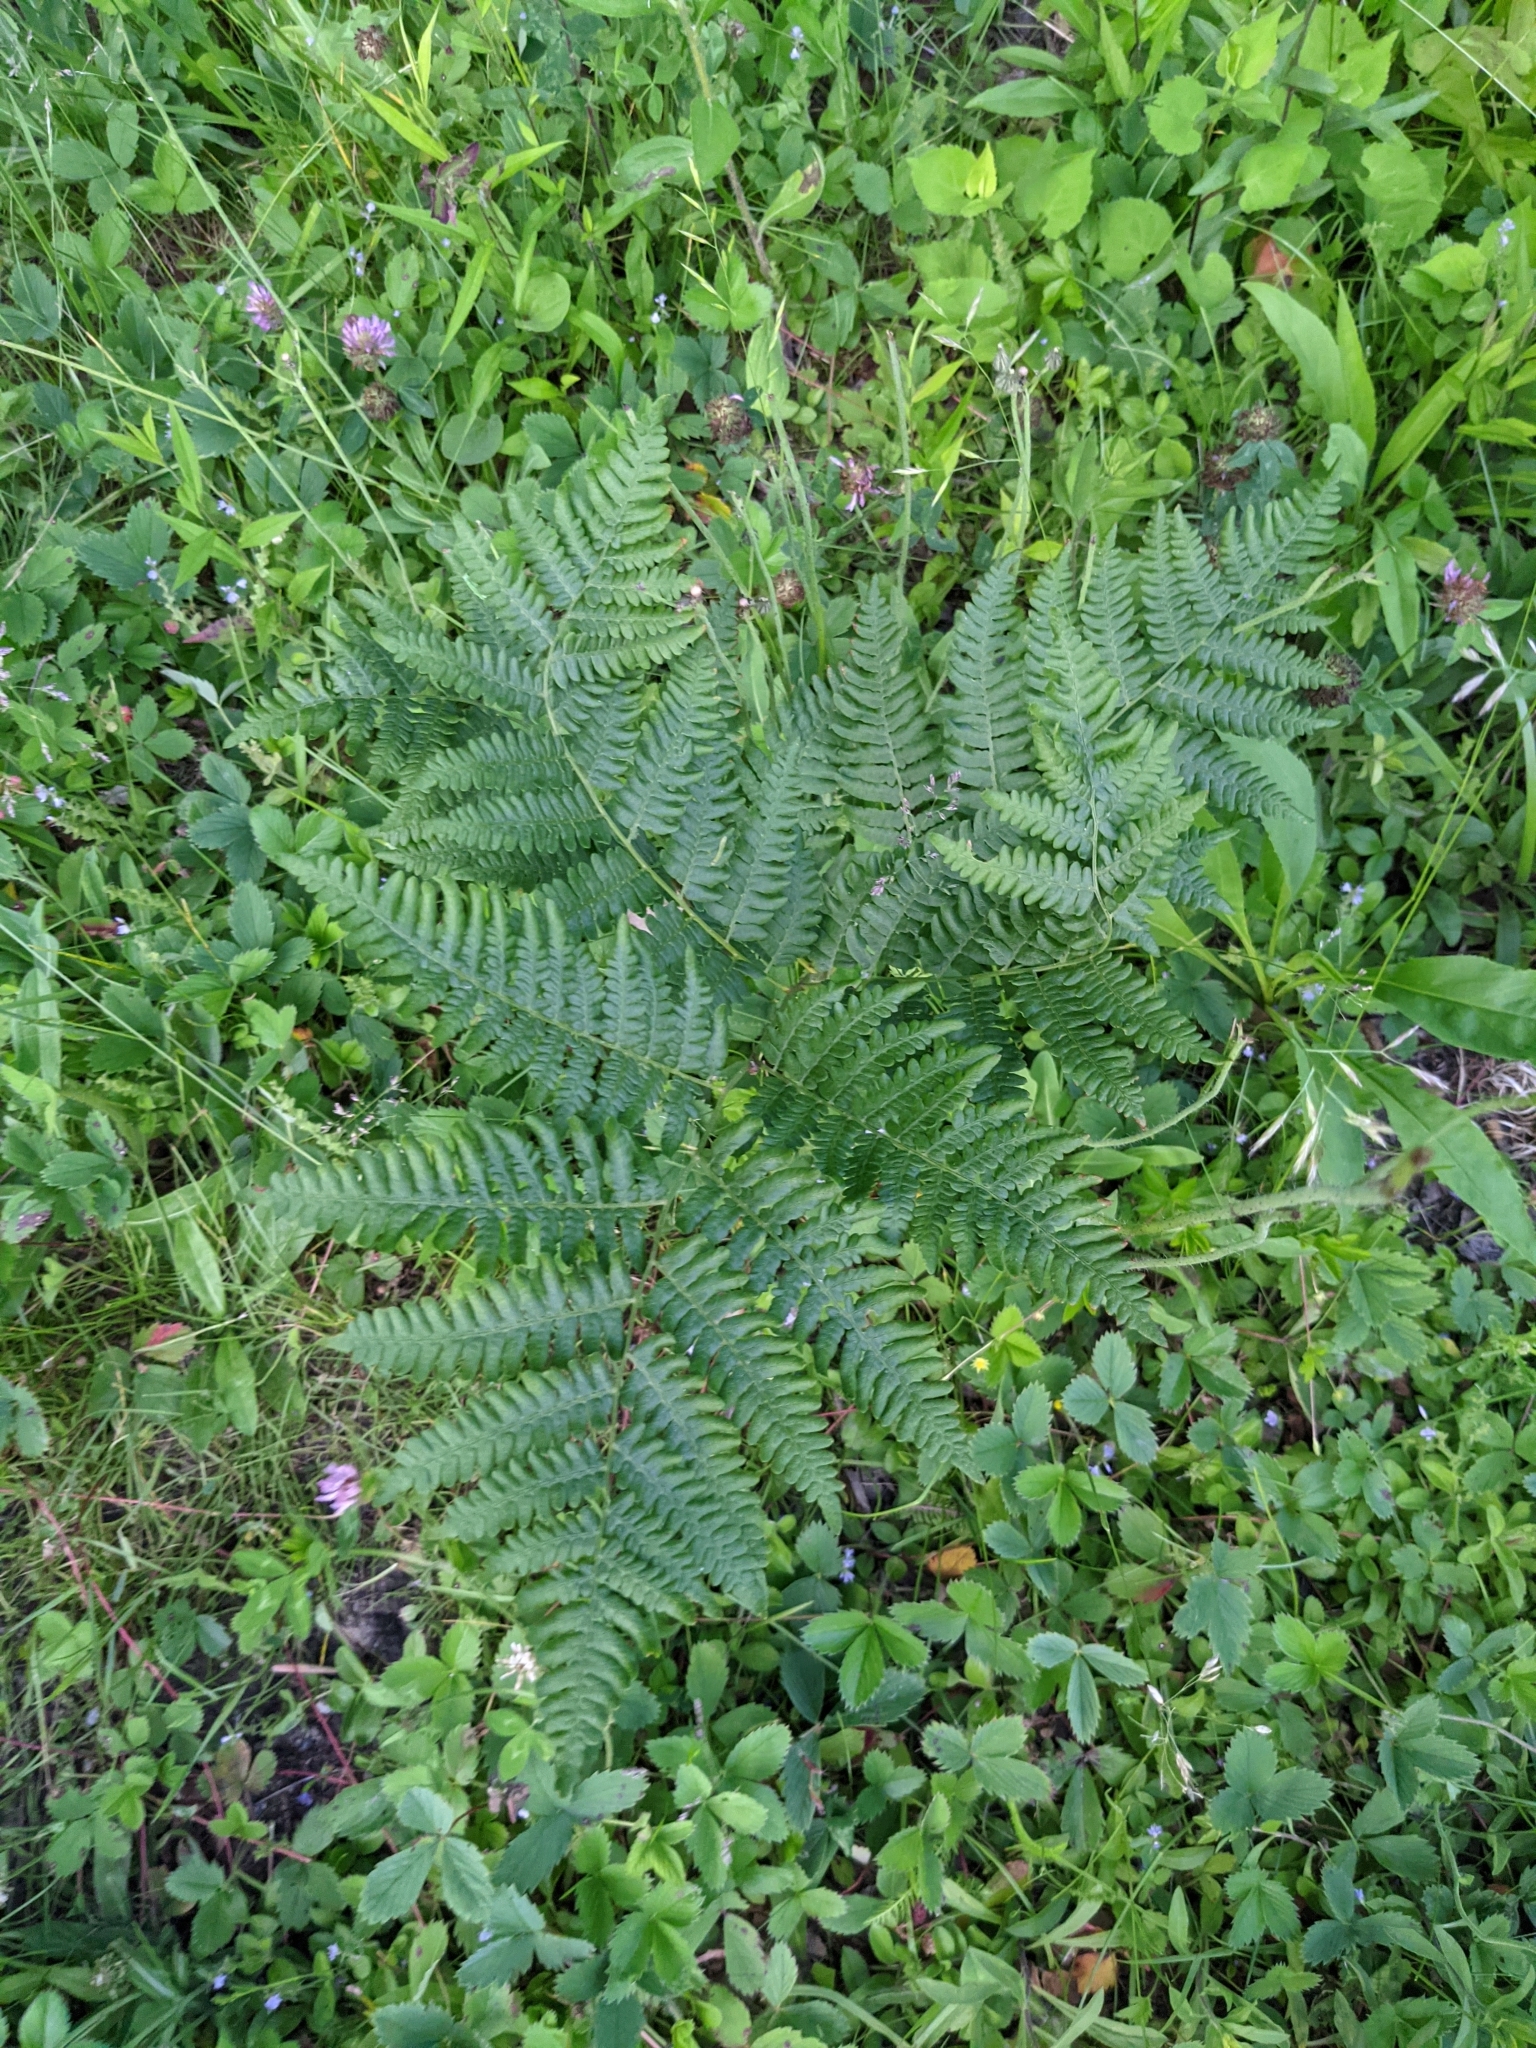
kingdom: Plantae
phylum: Tracheophyta
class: Polypodiopsida
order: Polypodiales
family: Dennstaedtiaceae
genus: Pteridium
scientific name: Pteridium aquilinum
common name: Bracken
